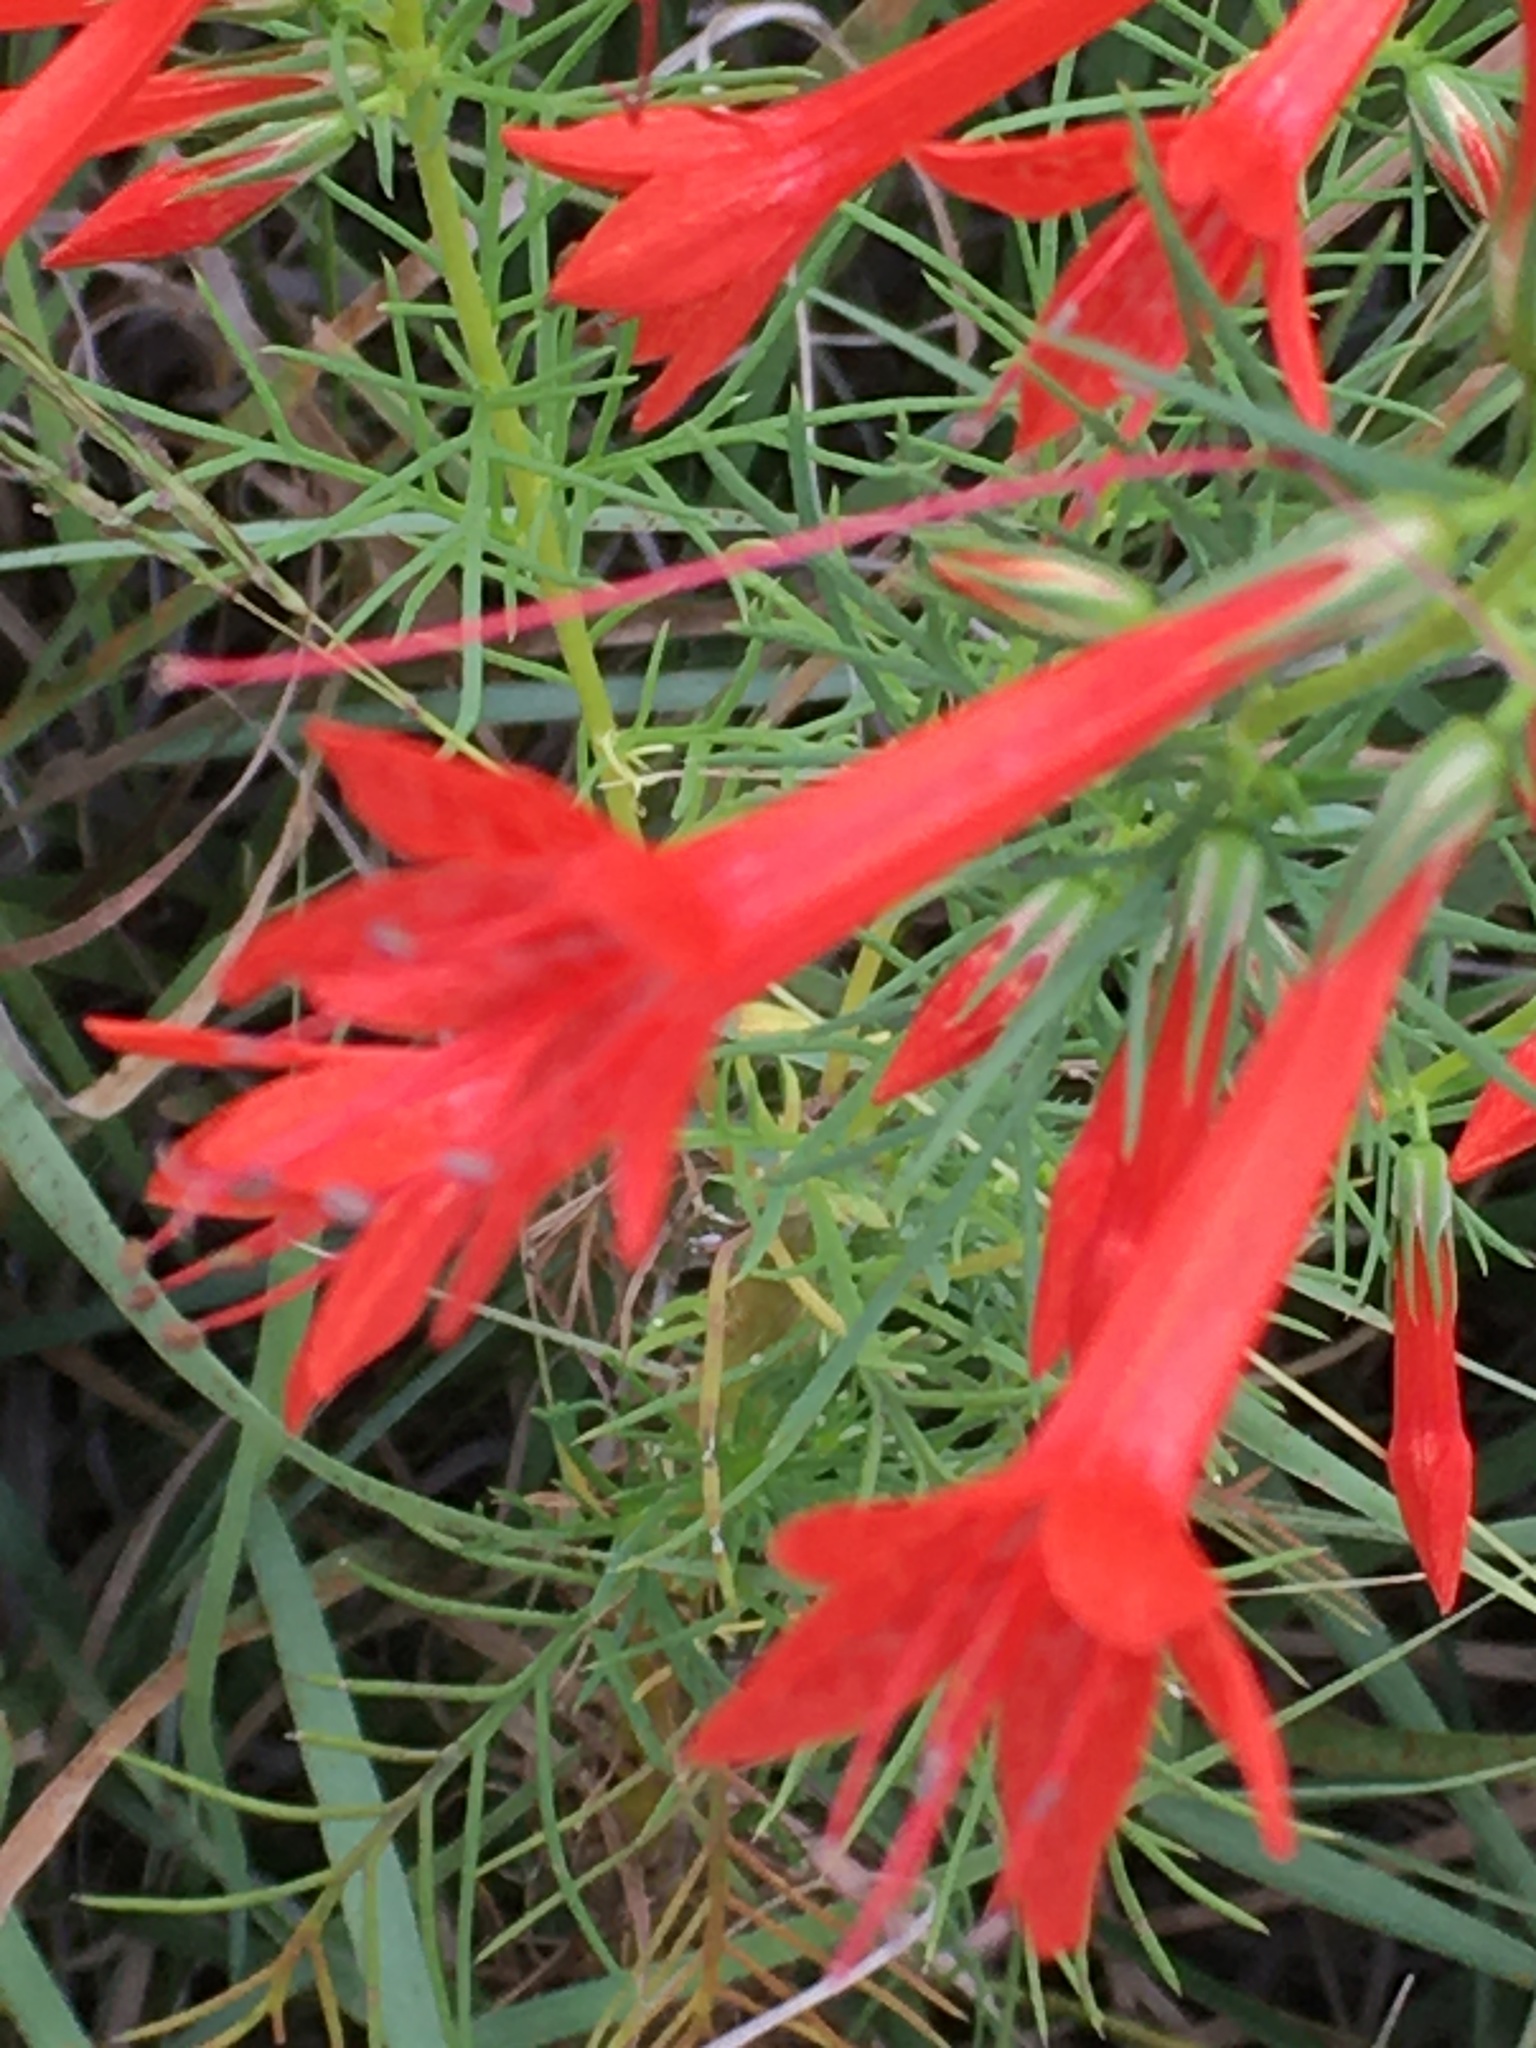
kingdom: Plantae
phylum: Tracheophyta
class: Magnoliopsida
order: Ericales
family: Polemoniaceae
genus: Ipomopsis
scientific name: Ipomopsis rubra
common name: Skyrocket
